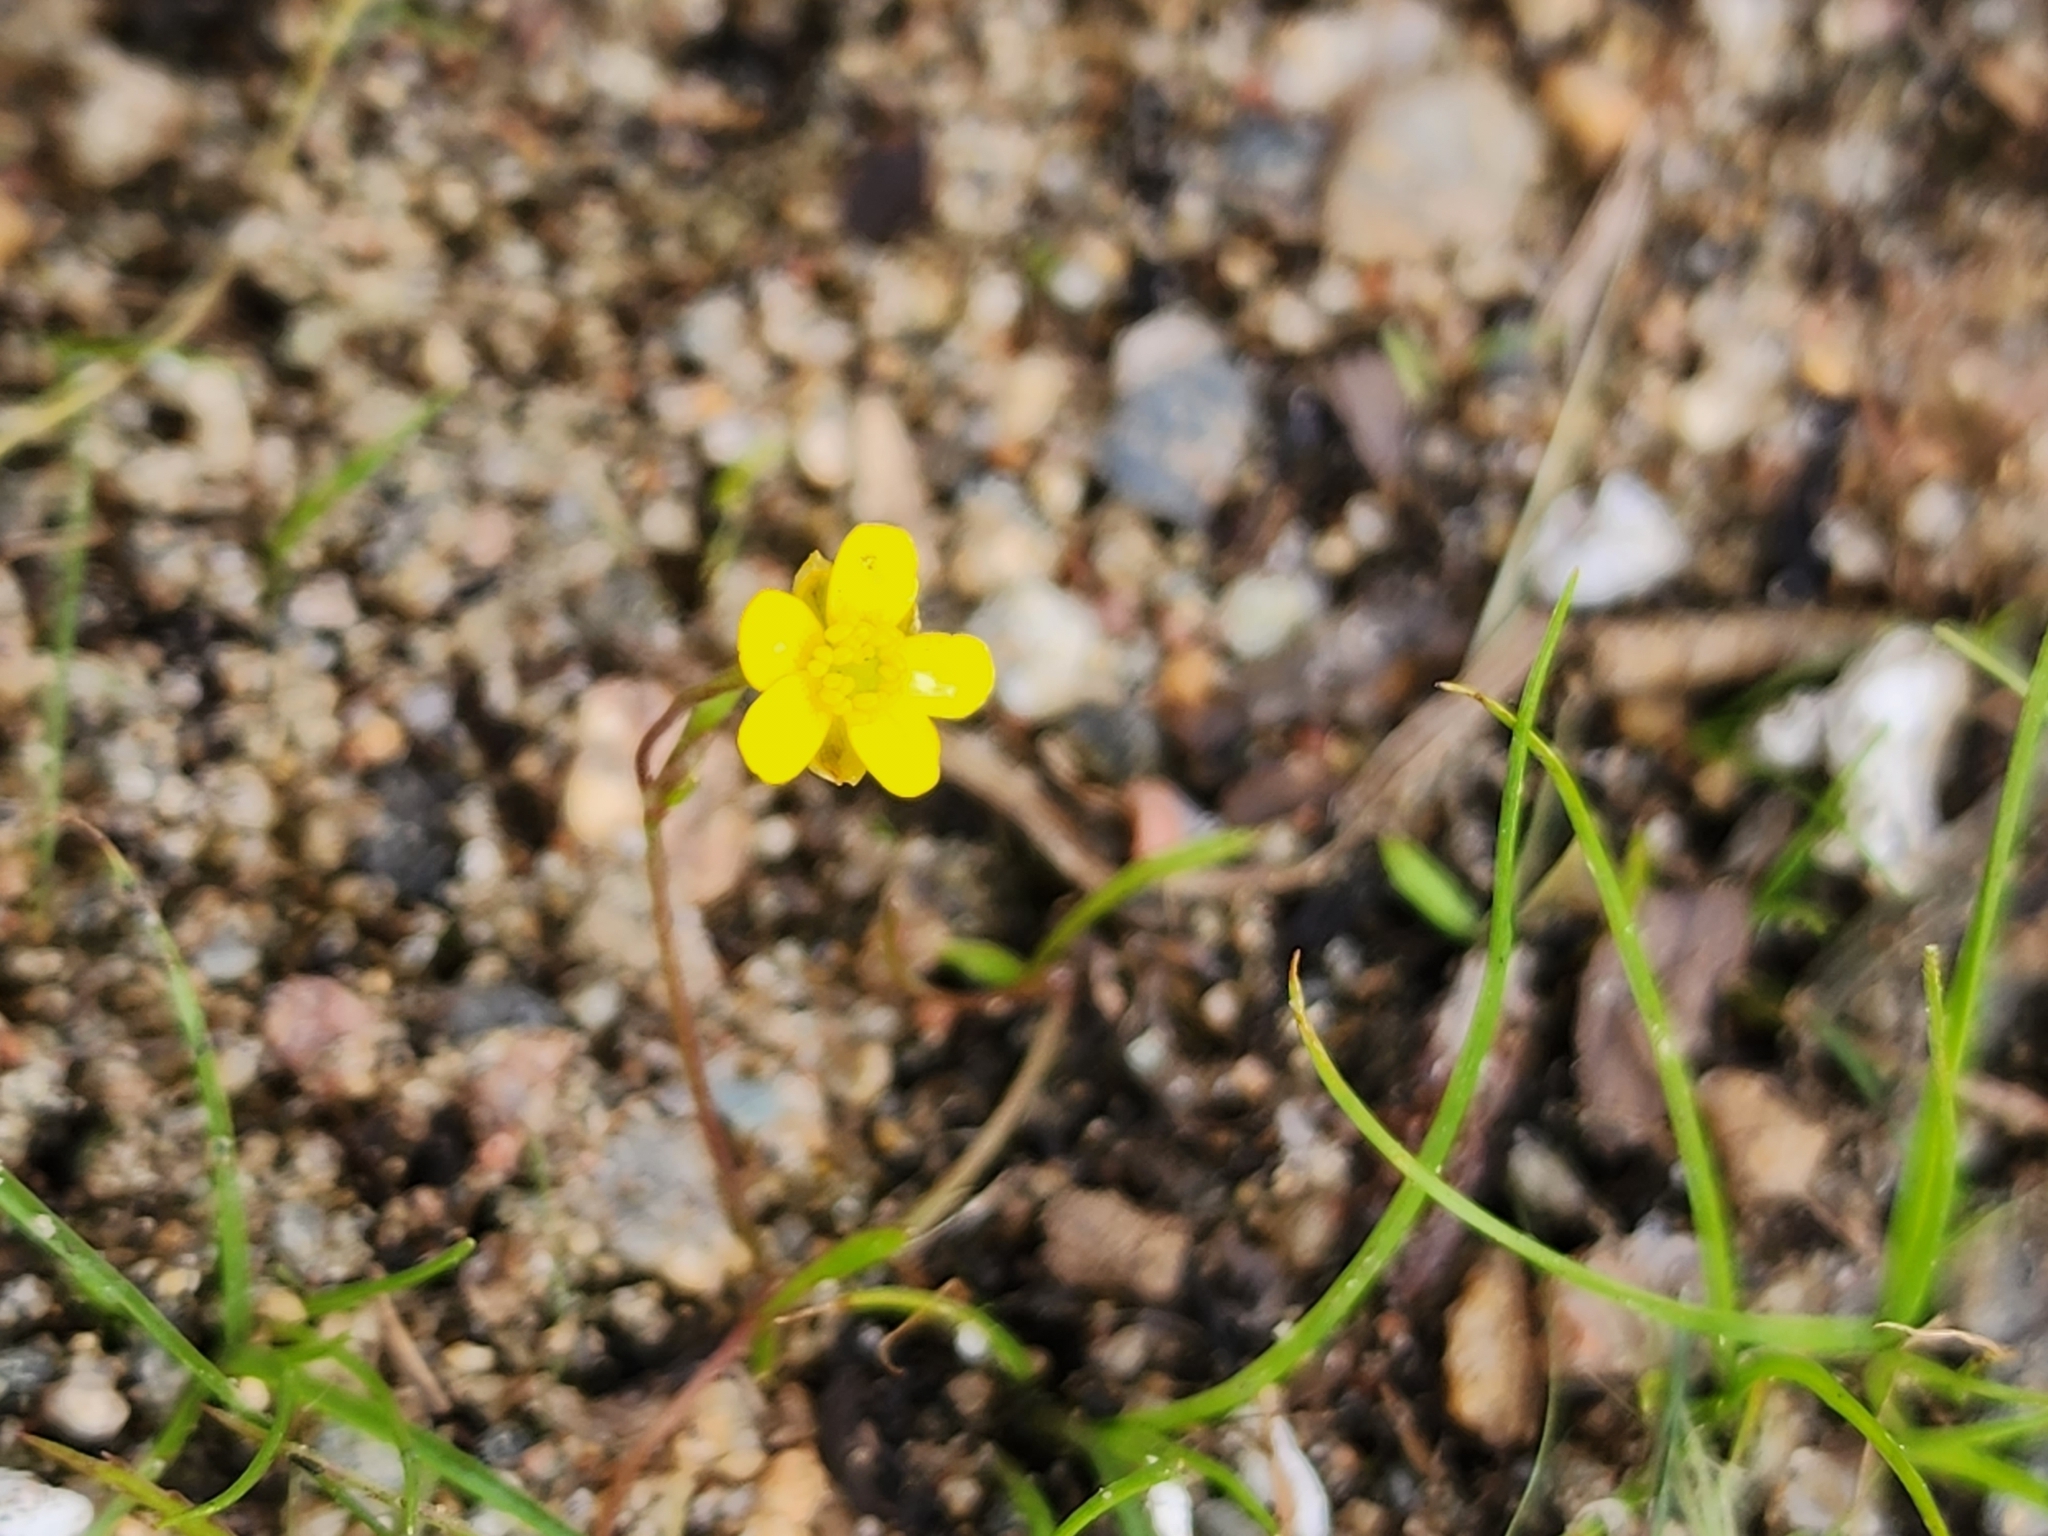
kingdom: Plantae
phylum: Tracheophyta
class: Magnoliopsida
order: Ranunculales
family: Ranunculaceae
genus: Ranunculus
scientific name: Ranunculus reptans
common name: Creeping spearwort
